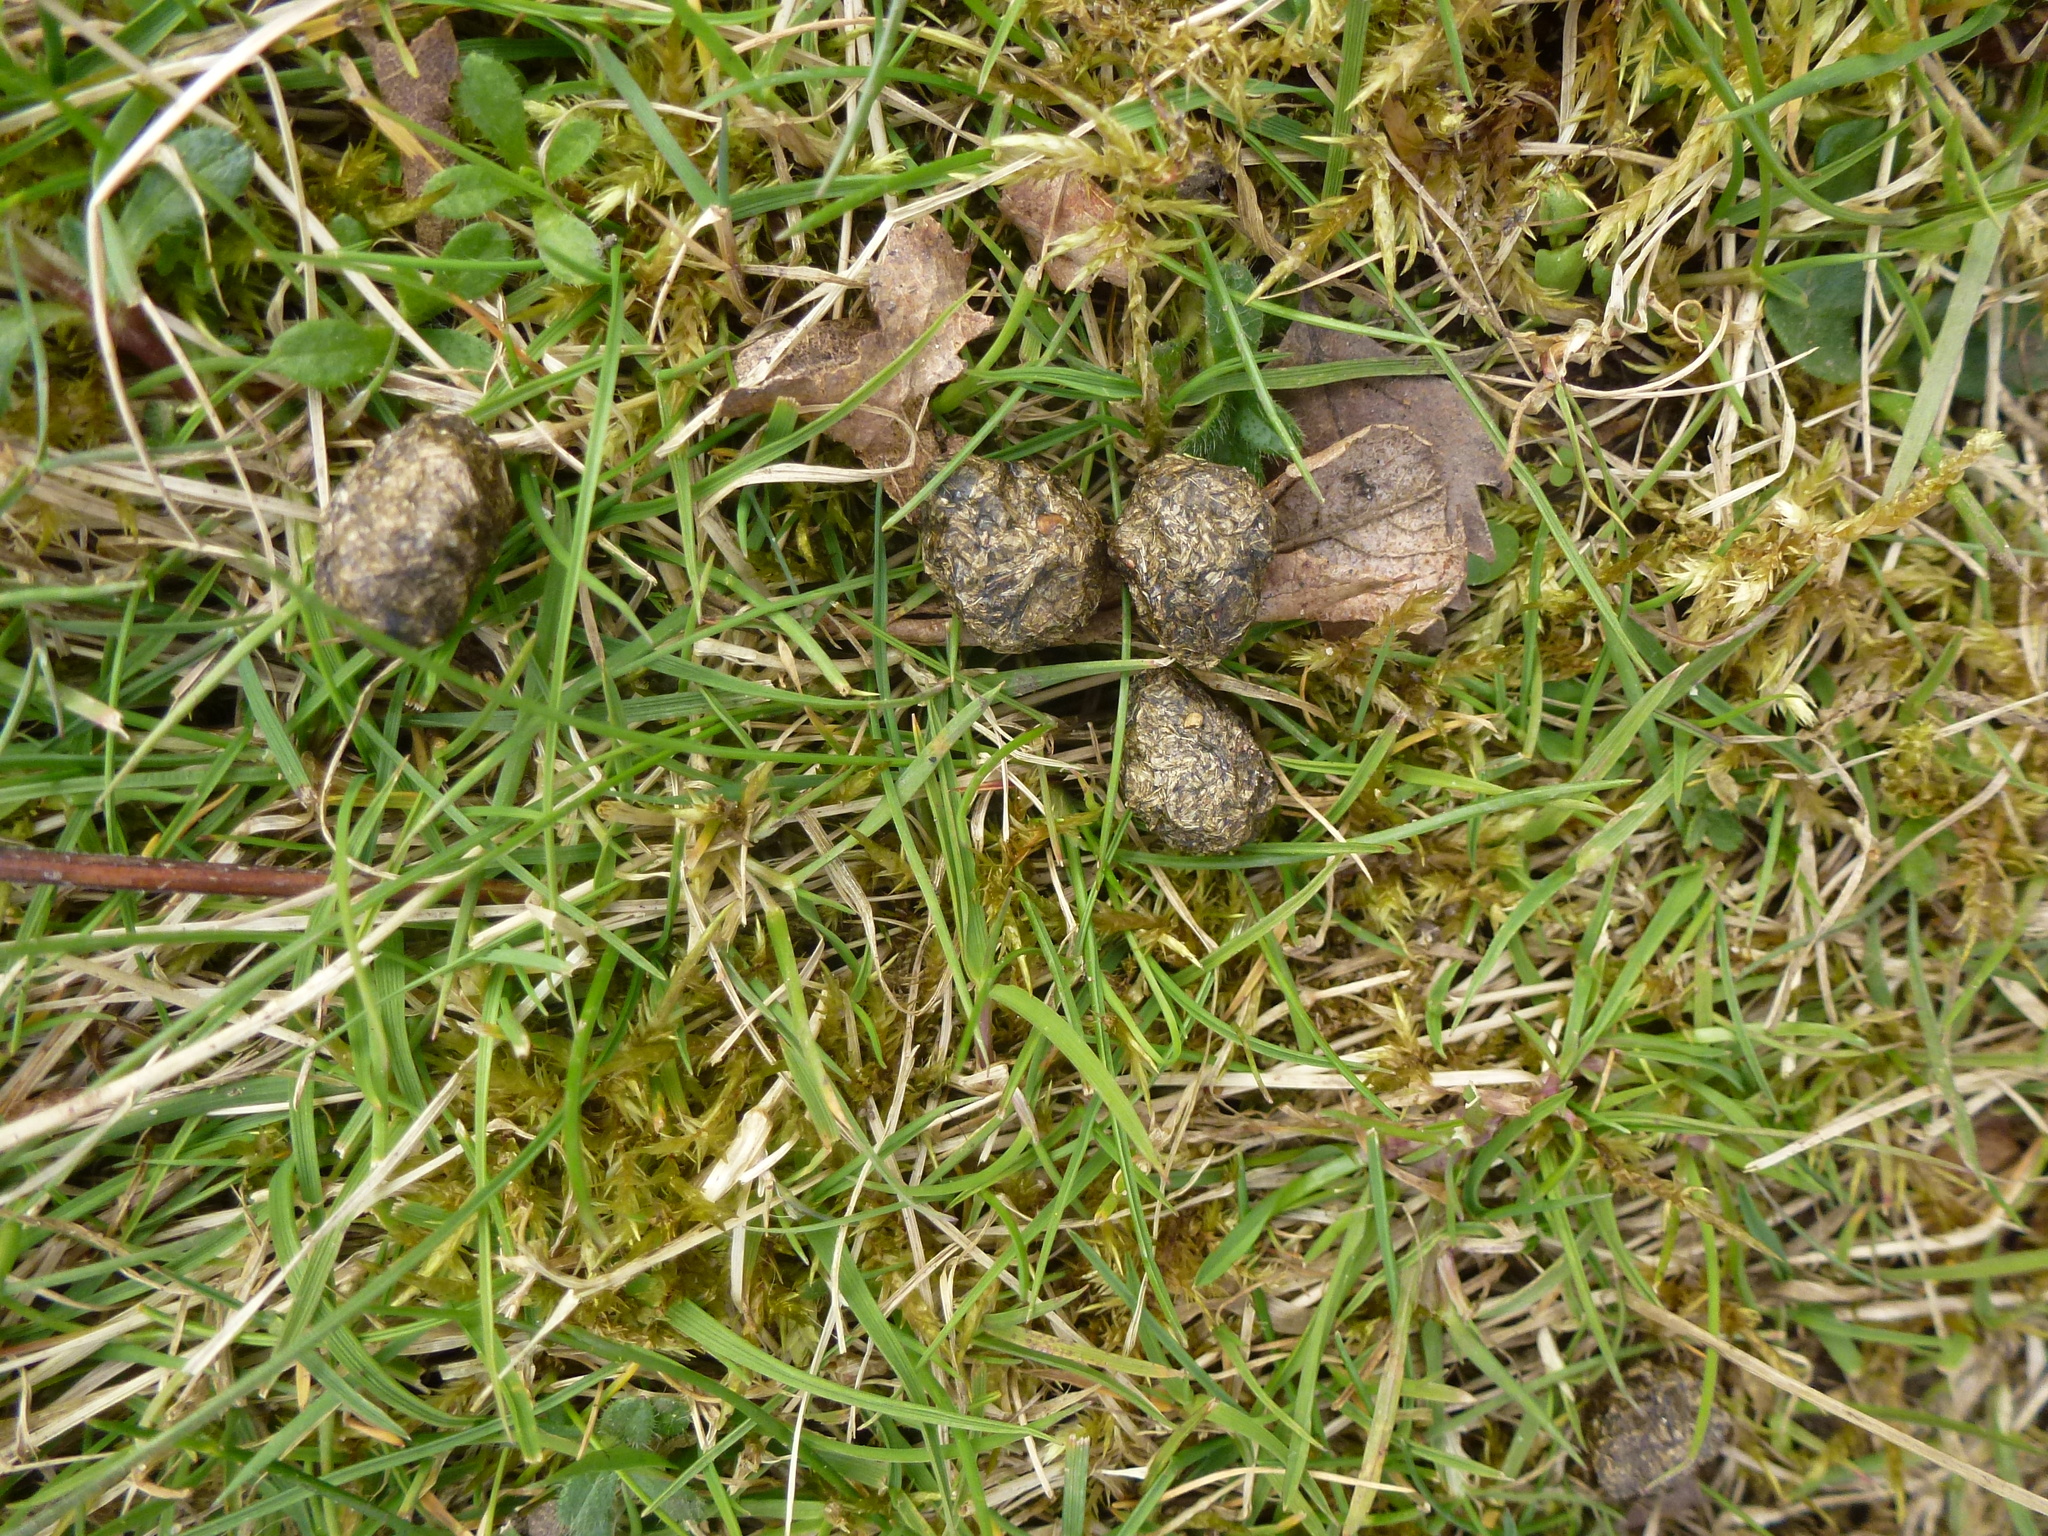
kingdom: Animalia
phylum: Chordata
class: Mammalia
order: Lagomorpha
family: Leporidae
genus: Oryctolagus
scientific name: Oryctolagus cuniculus
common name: European rabbit
